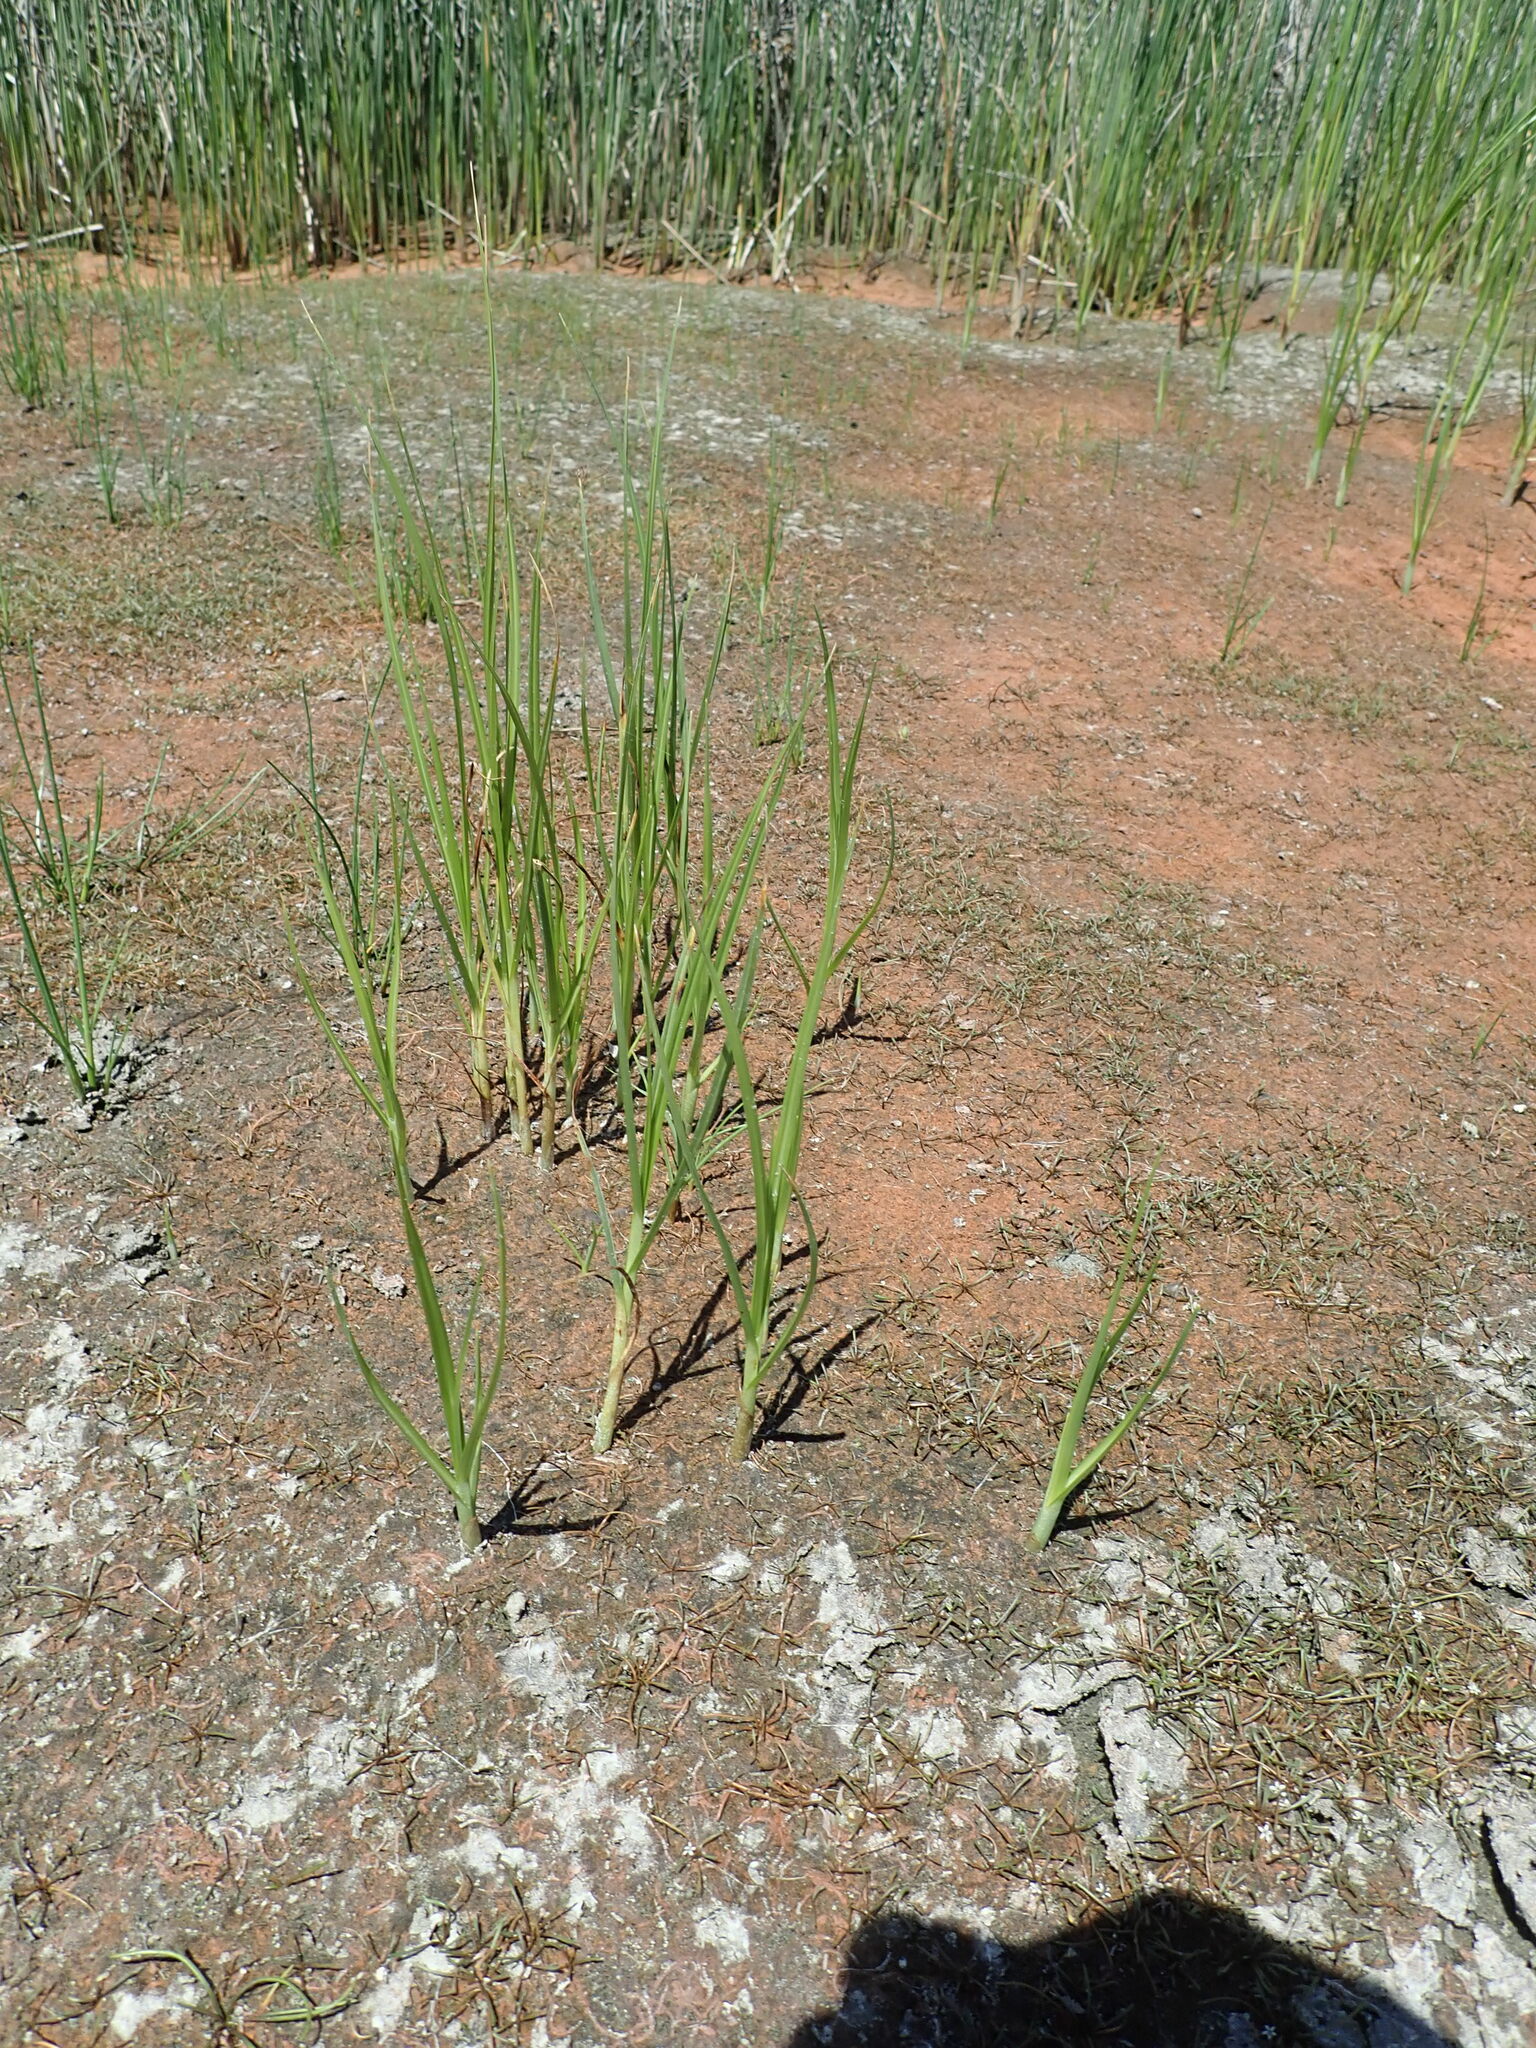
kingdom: Plantae
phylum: Tracheophyta
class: Magnoliopsida
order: Lamiales
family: Scrophulariaceae
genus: Limosella
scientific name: Limosella australis
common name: Welsh mudwort
